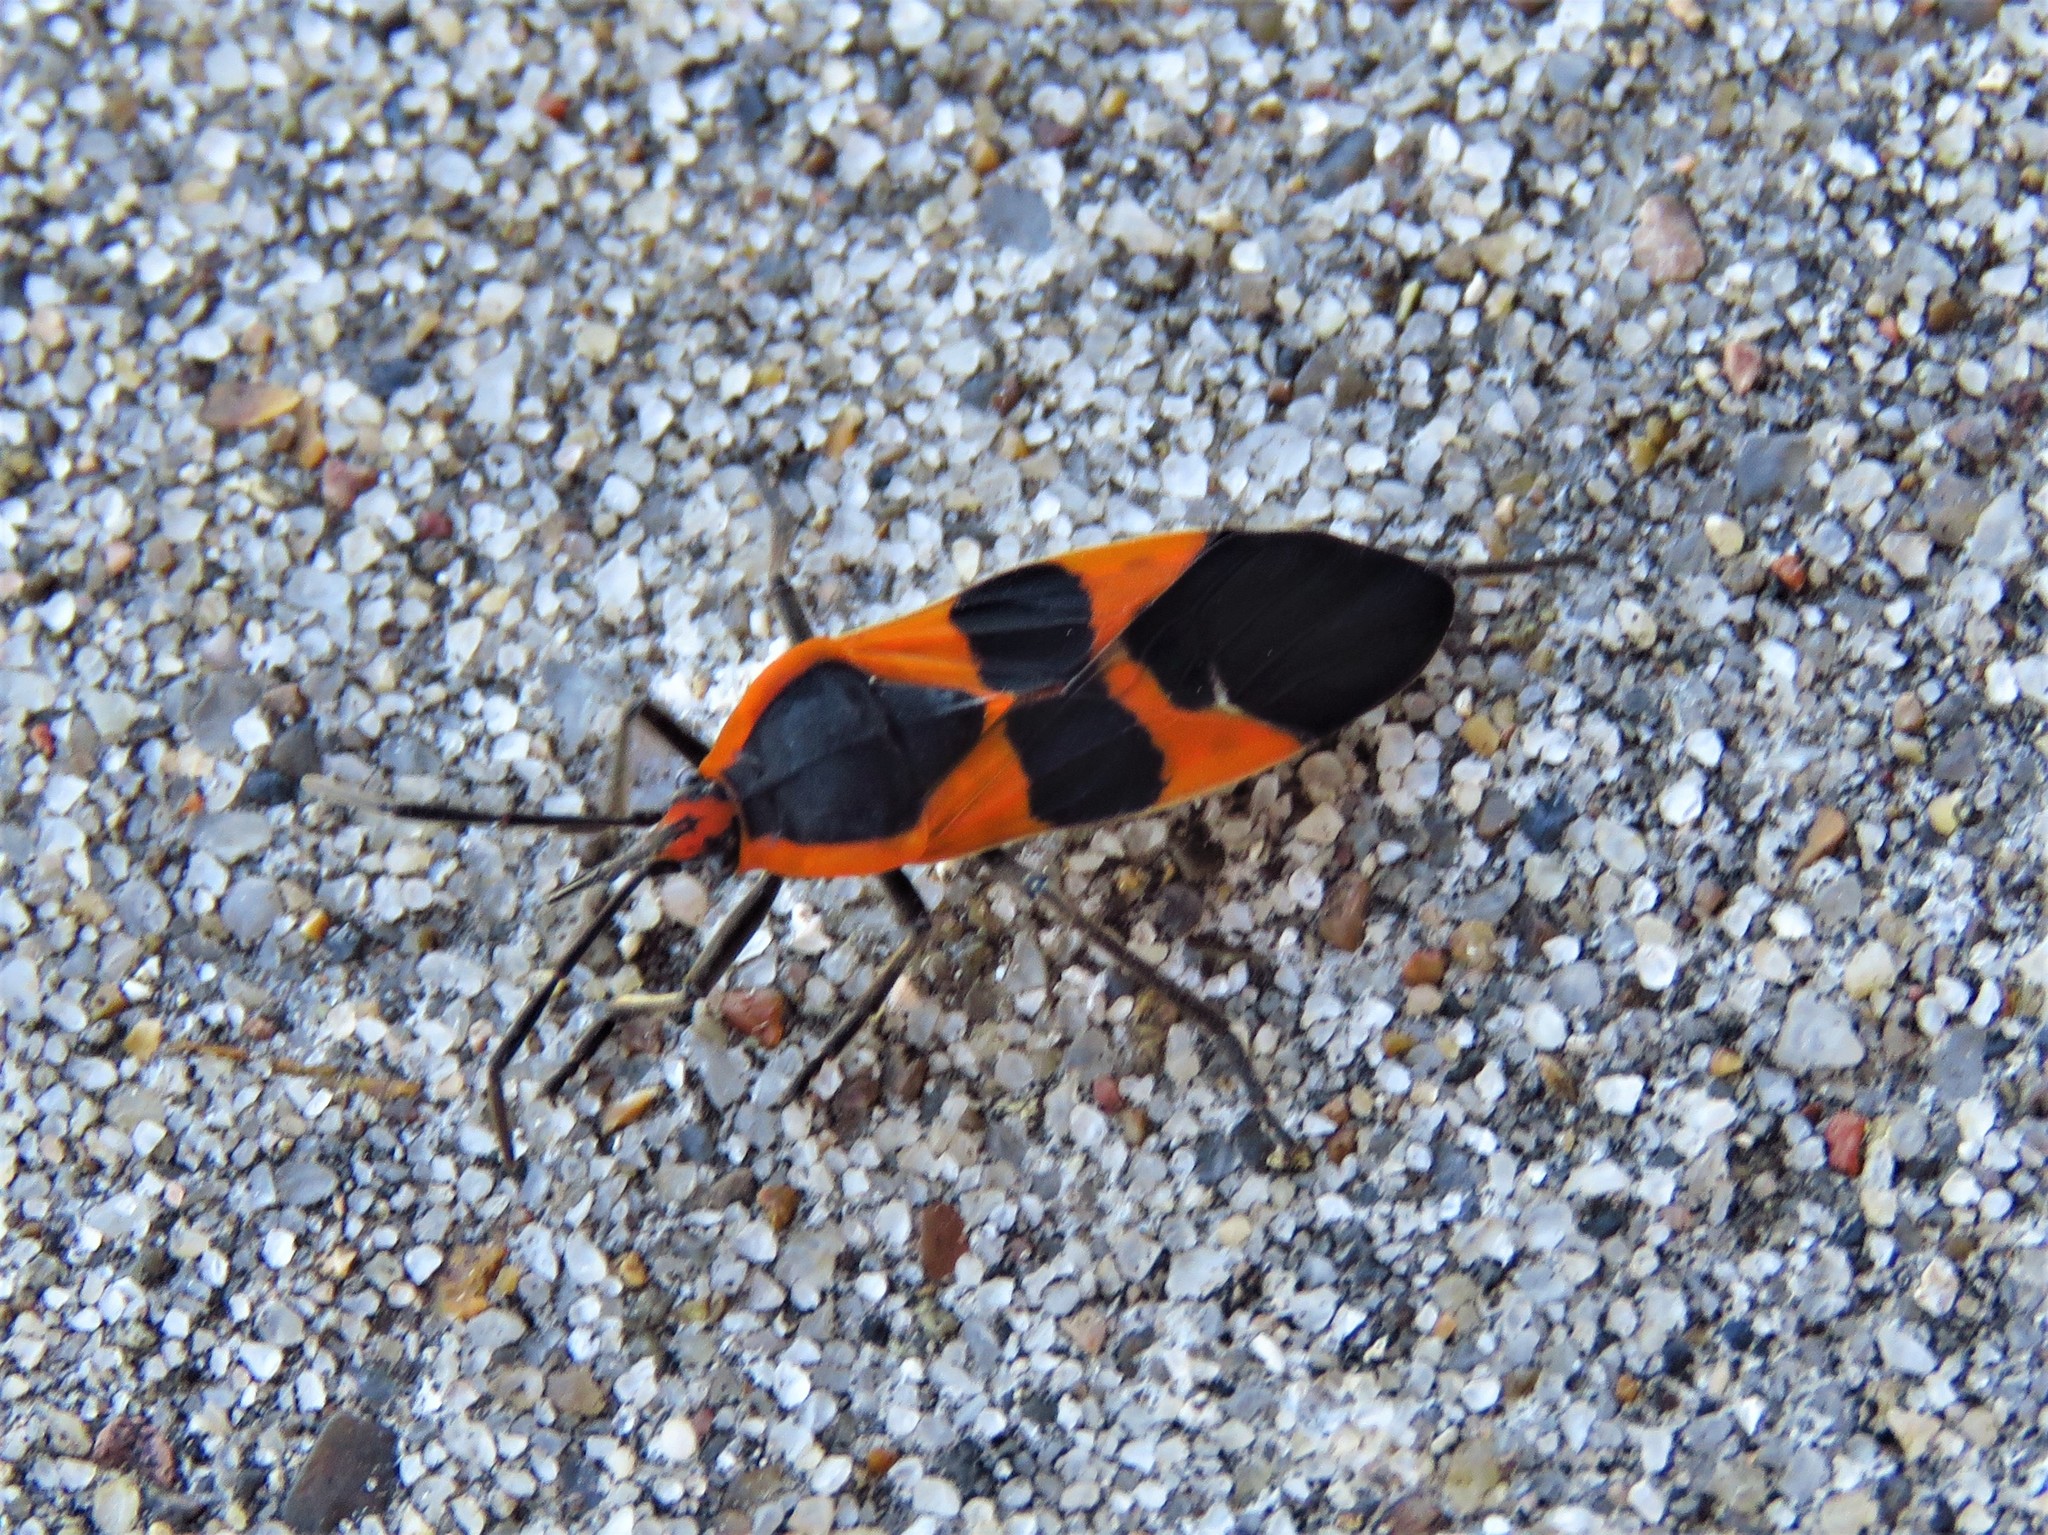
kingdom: Animalia
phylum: Arthropoda
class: Insecta
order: Hemiptera
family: Lygaeidae
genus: Oncopeltus
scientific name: Oncopeltus fasciatus
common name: Large milkweed bug
